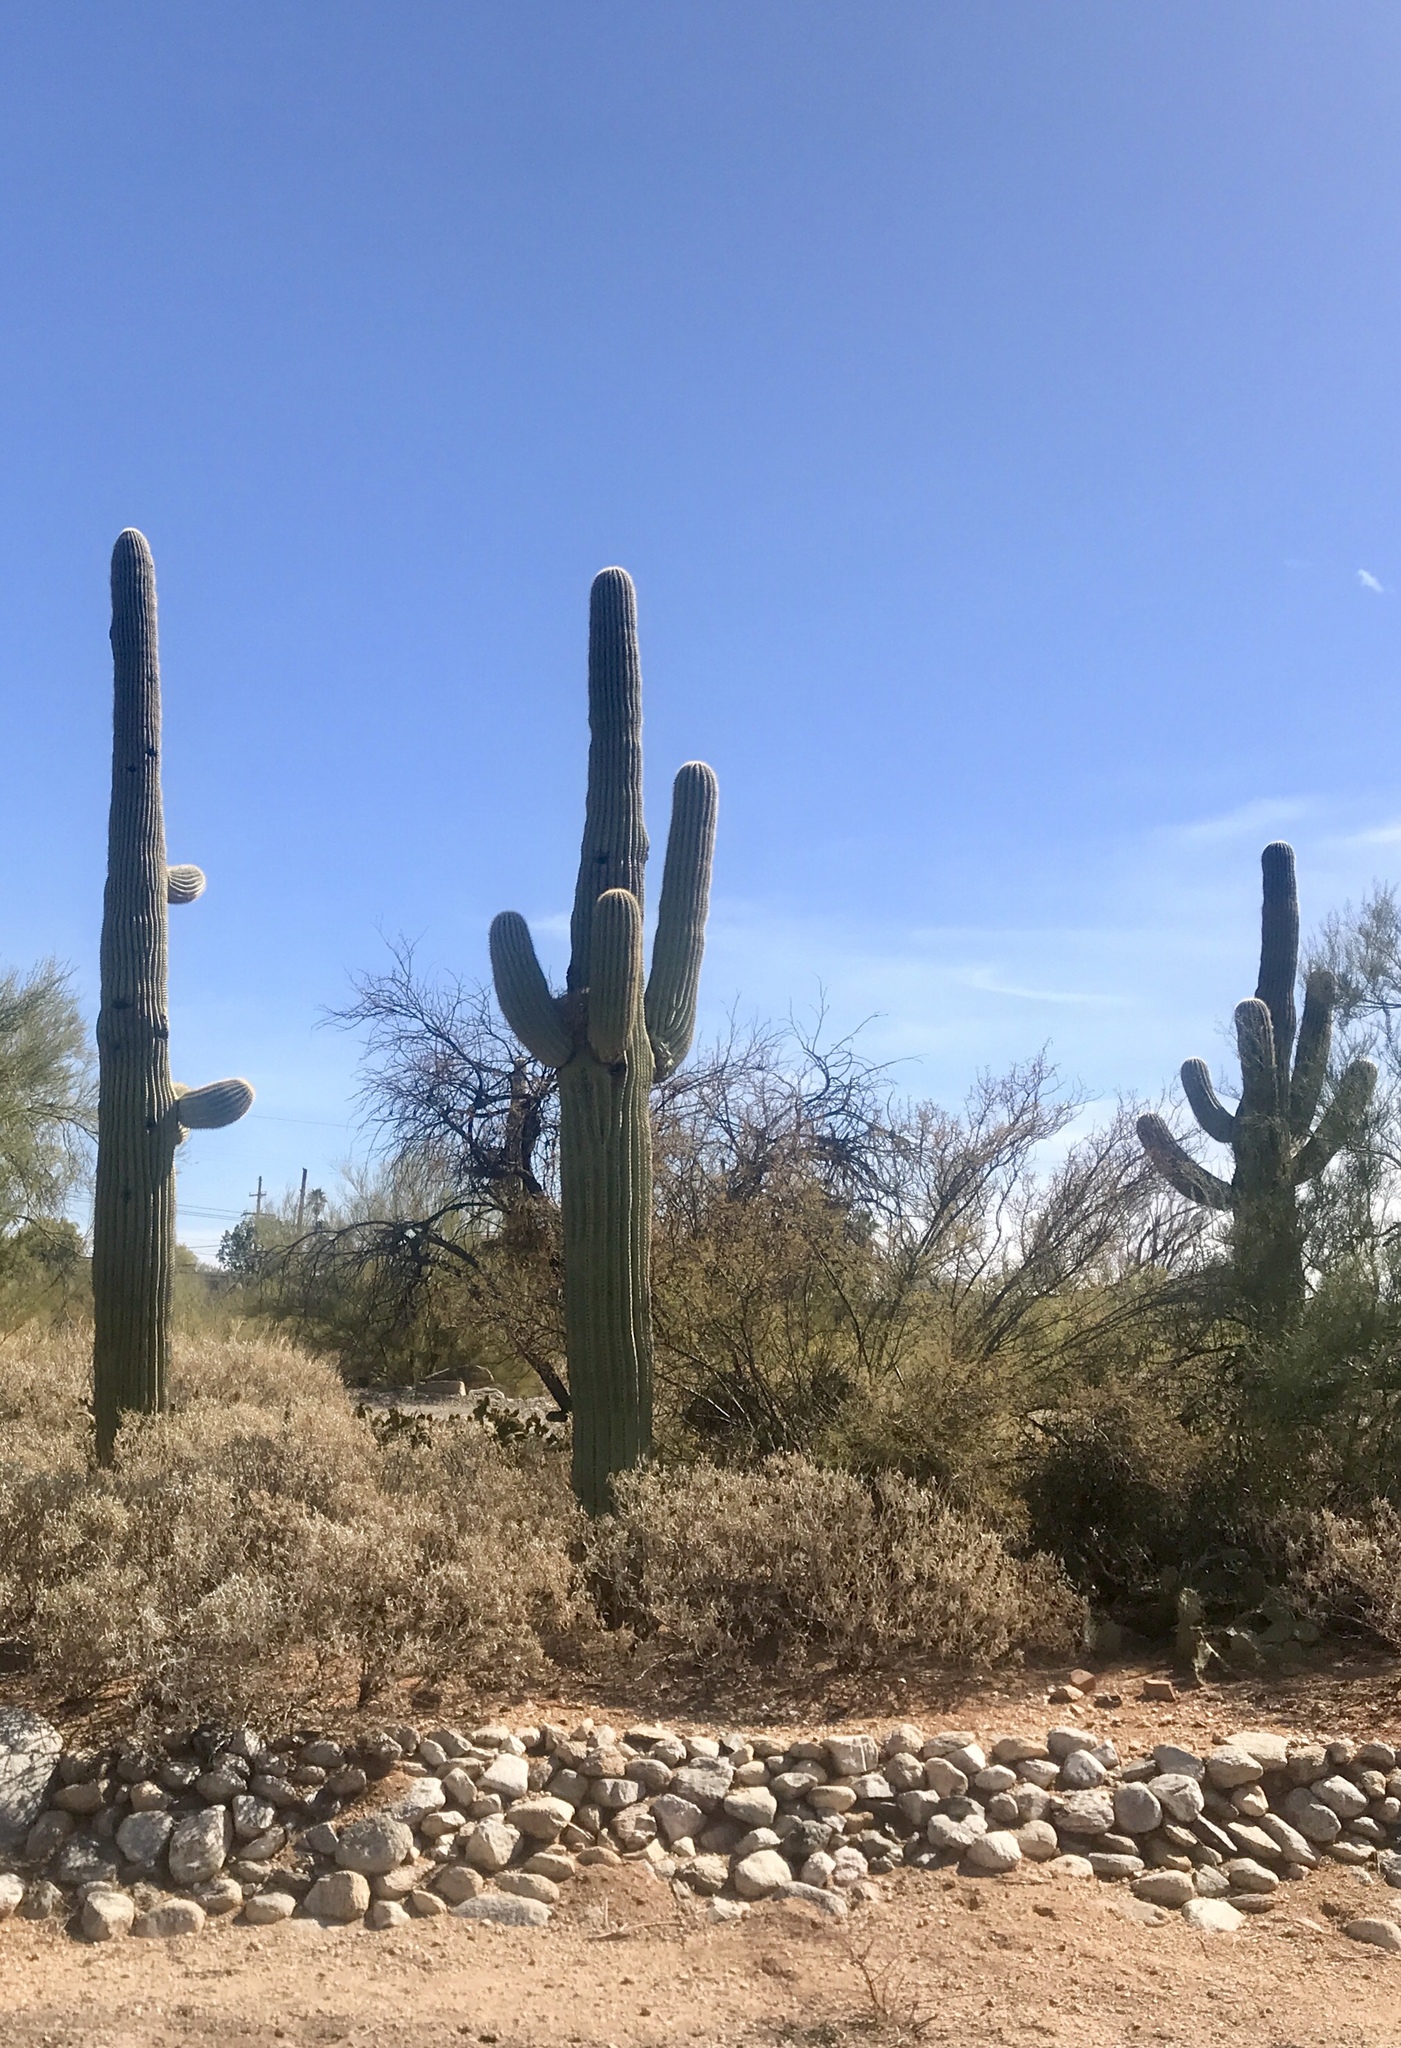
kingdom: Plantae
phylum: Tracheophyta
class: Magnoliopsida
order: Caryophyllales
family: Cactaceae
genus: Carnegiea
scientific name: Carnegiea gigantea
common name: Saguaro
